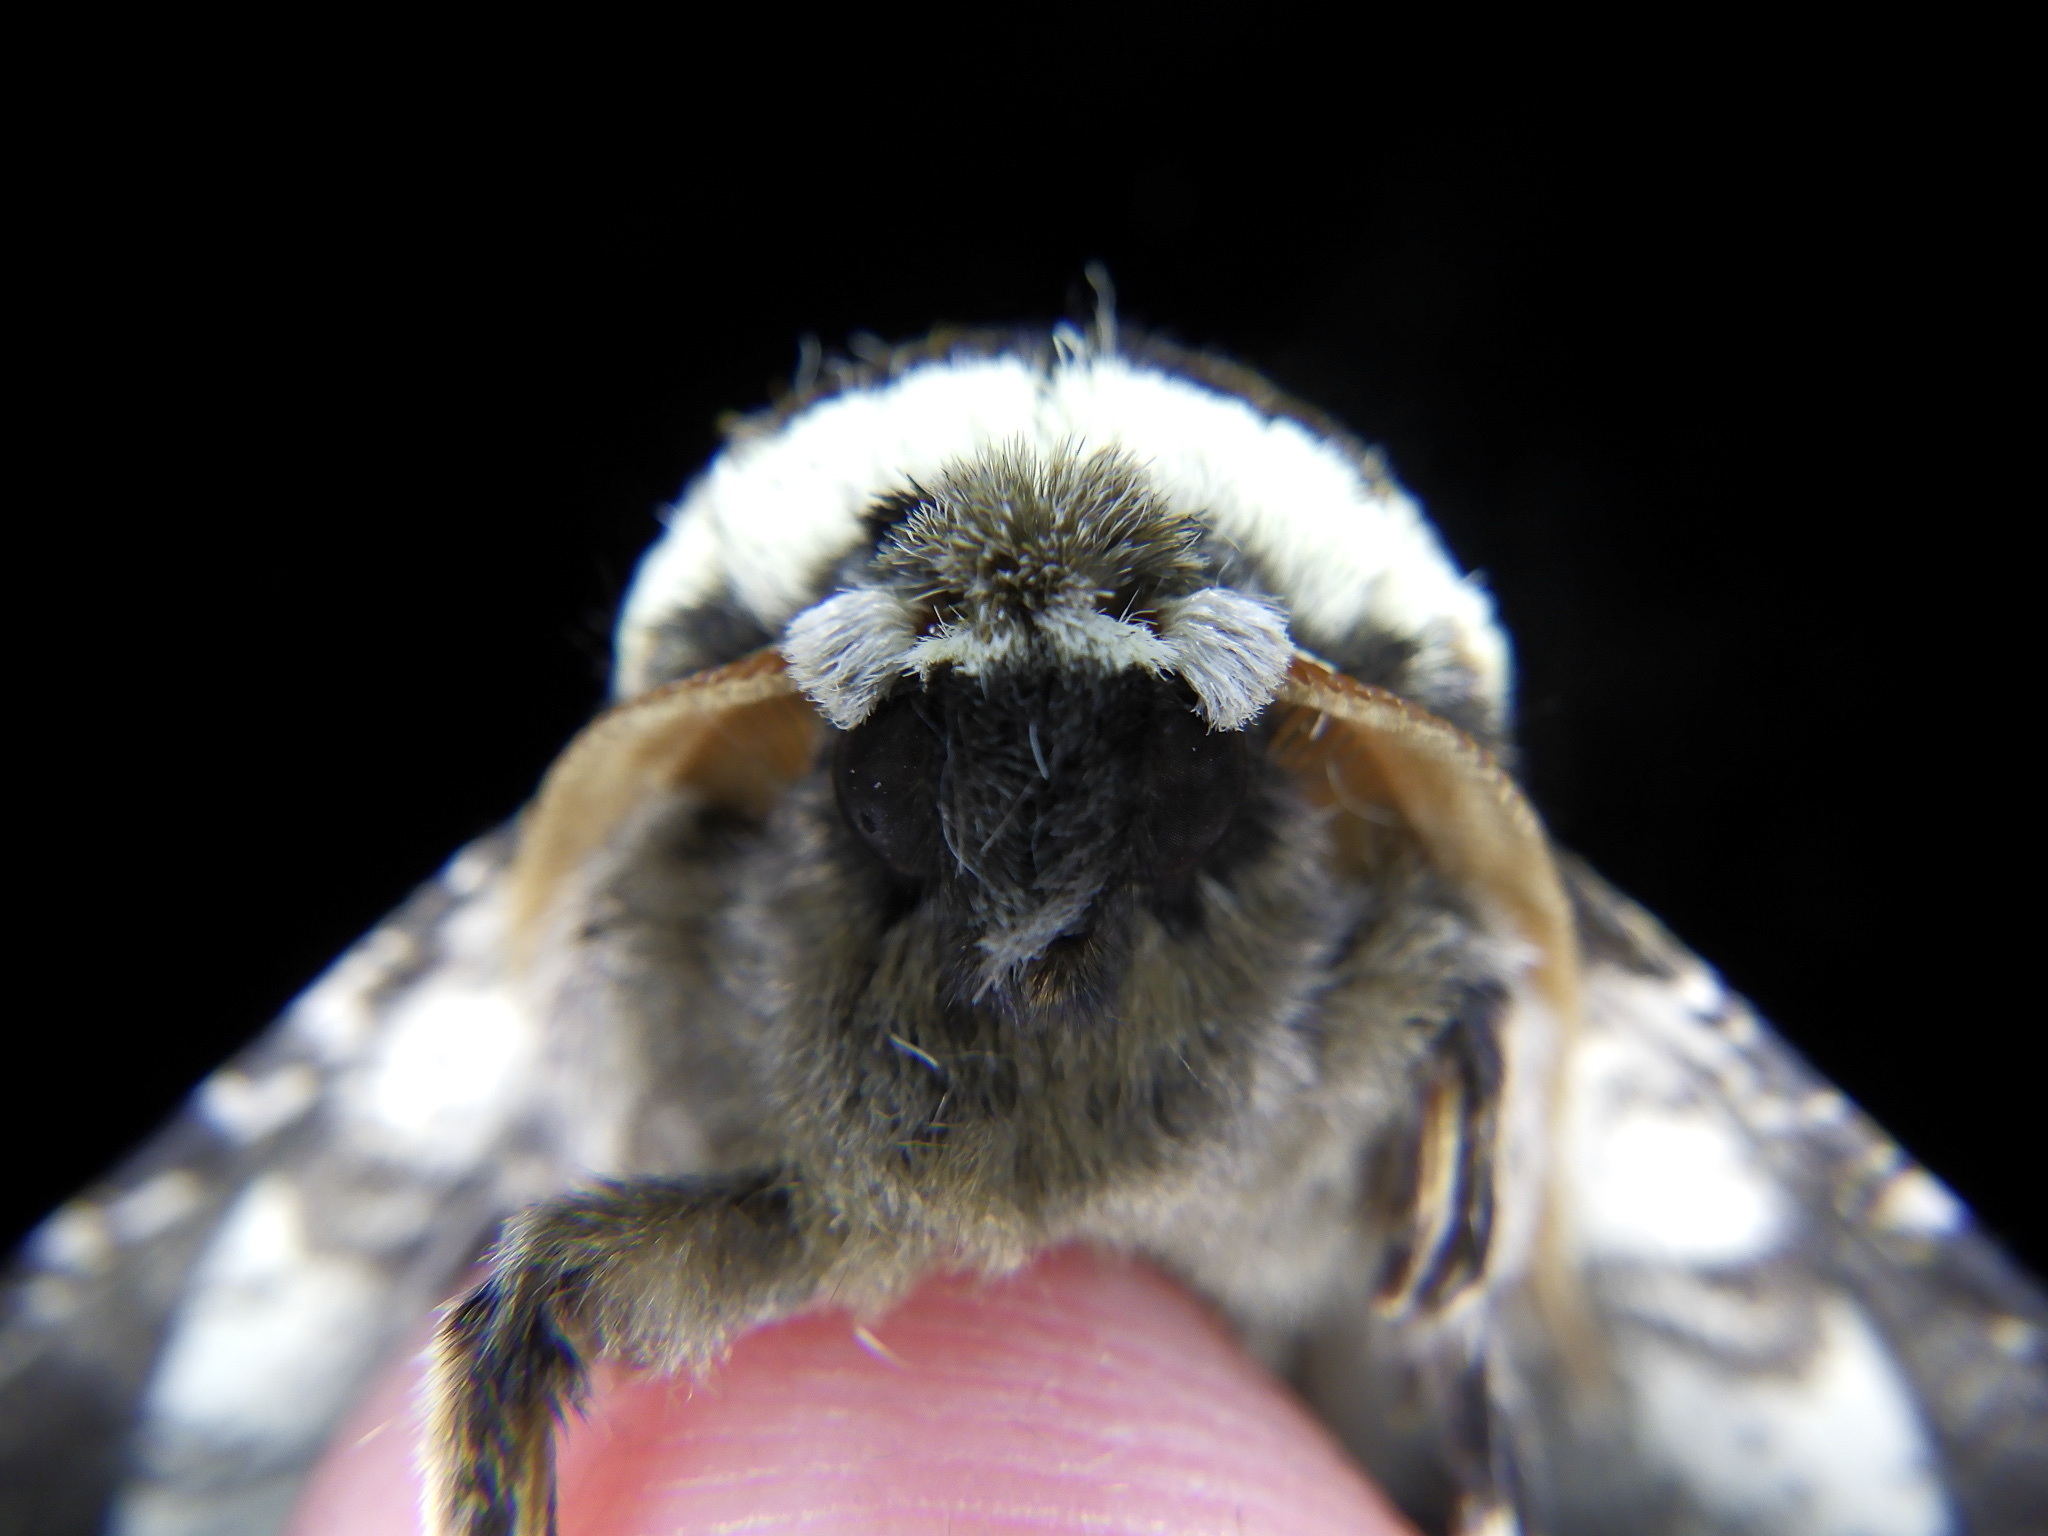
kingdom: Animalia
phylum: Arthropoda
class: Insecta
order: Lepidoptera
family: Geometridae
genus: Biston
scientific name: Biston robustum
